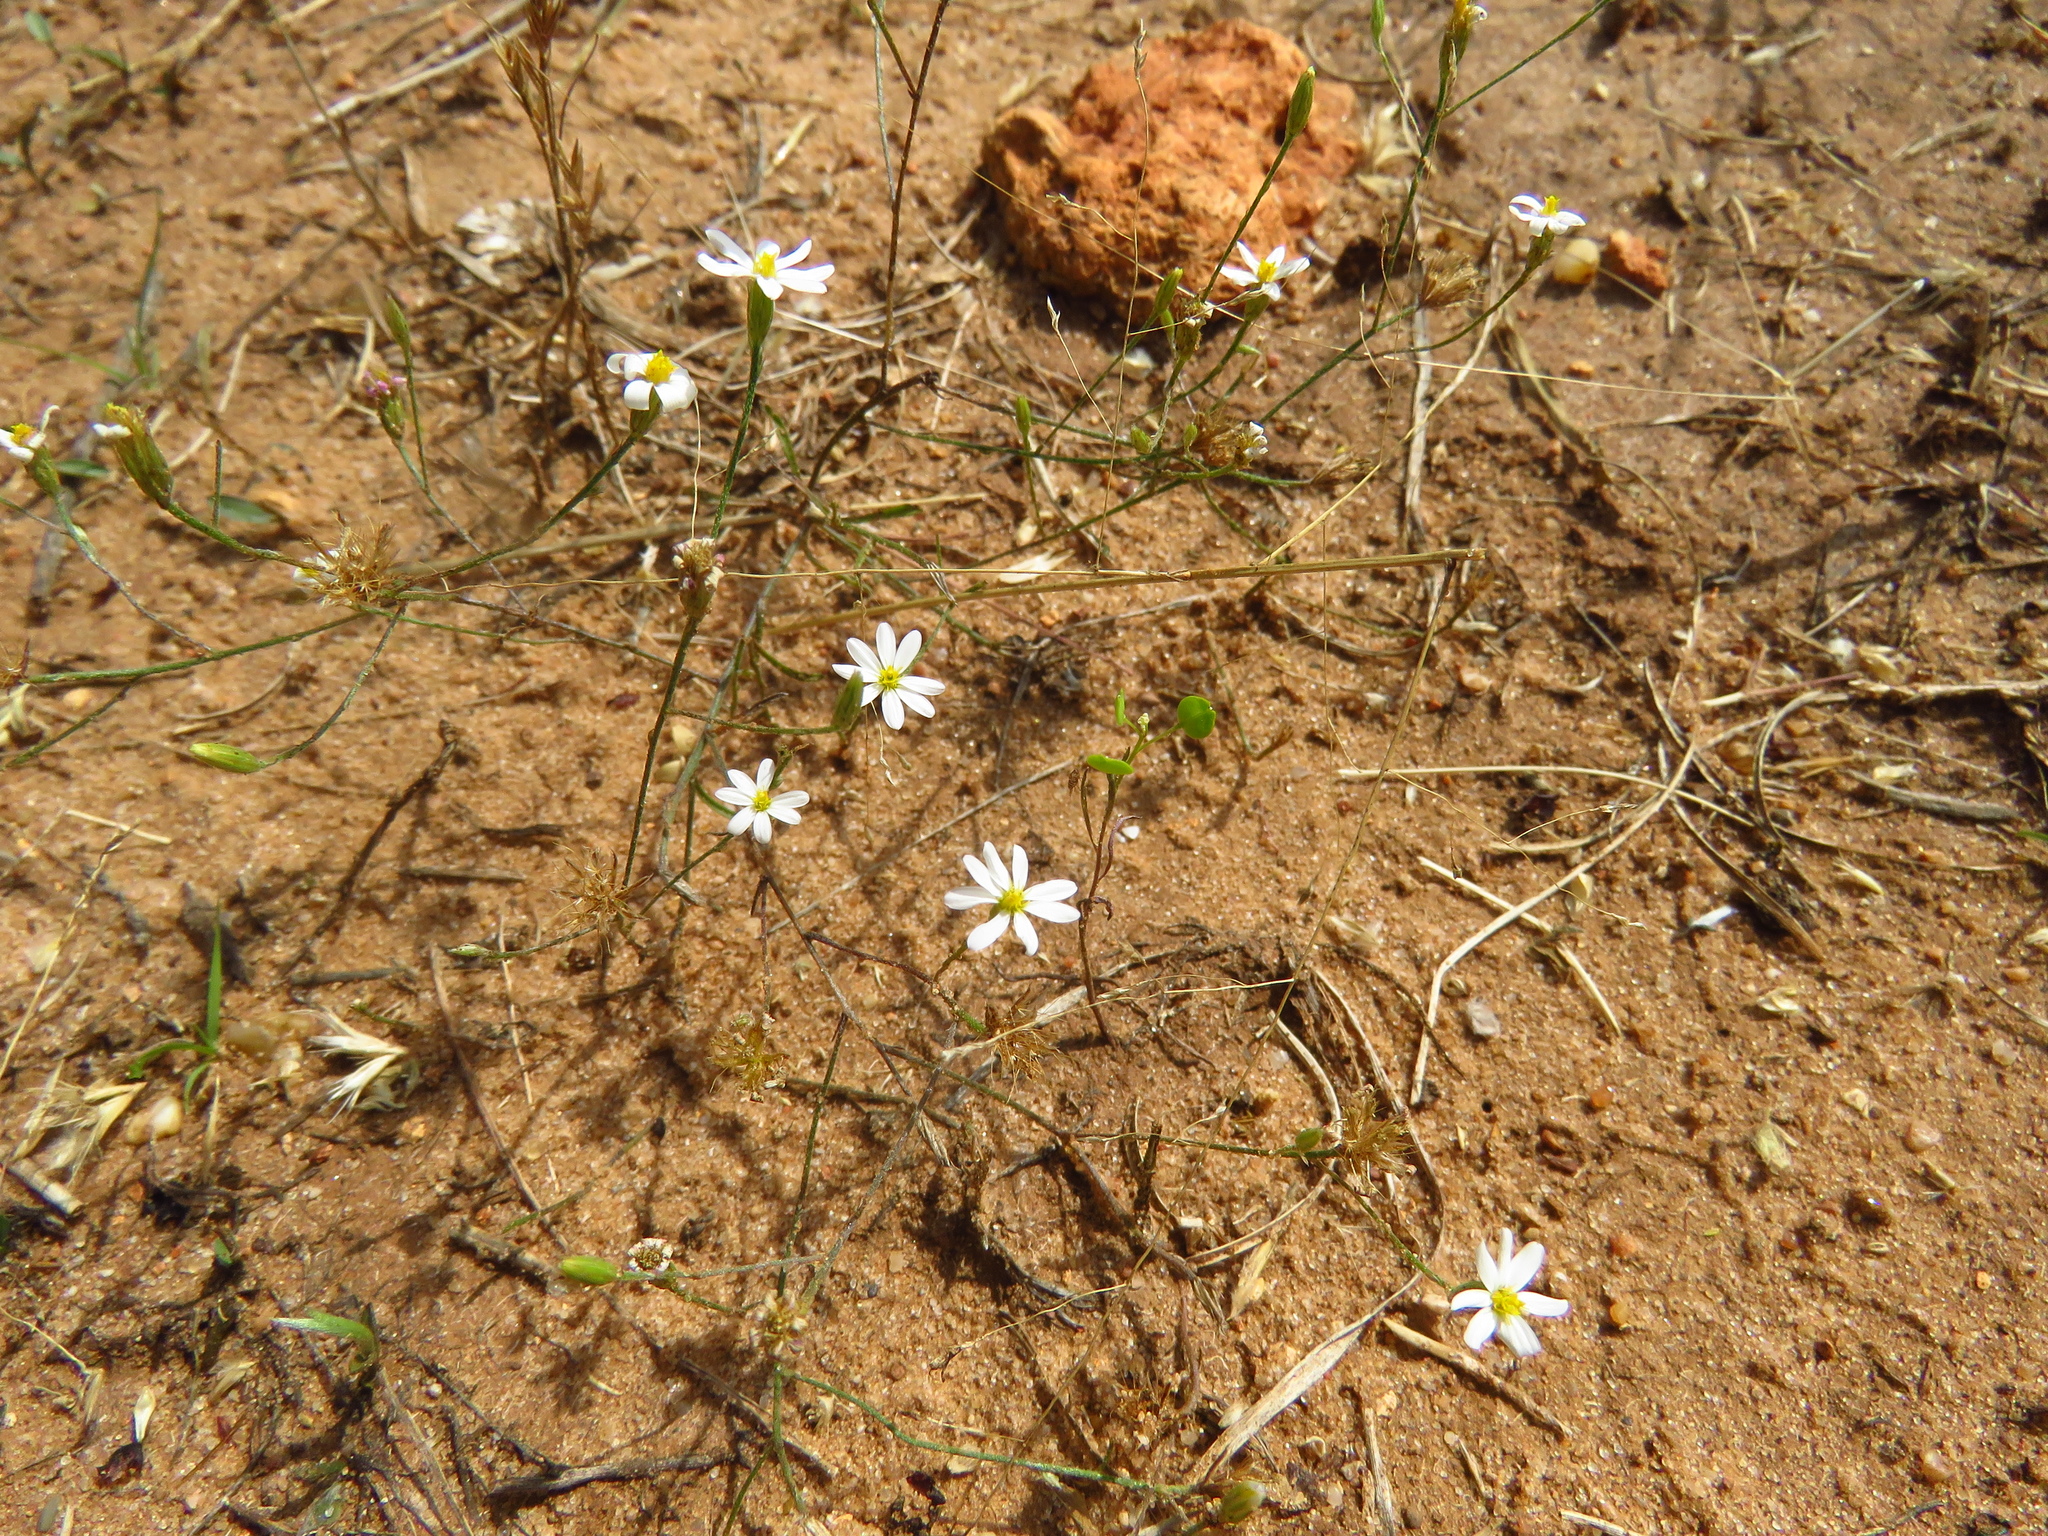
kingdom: Plantae
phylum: Tracheophyta
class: Magnoliopsida
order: Asterales
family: Asteraceae
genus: Chaetopappa
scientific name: Chaetopappa asteroides
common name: Tiny lazy daisy
